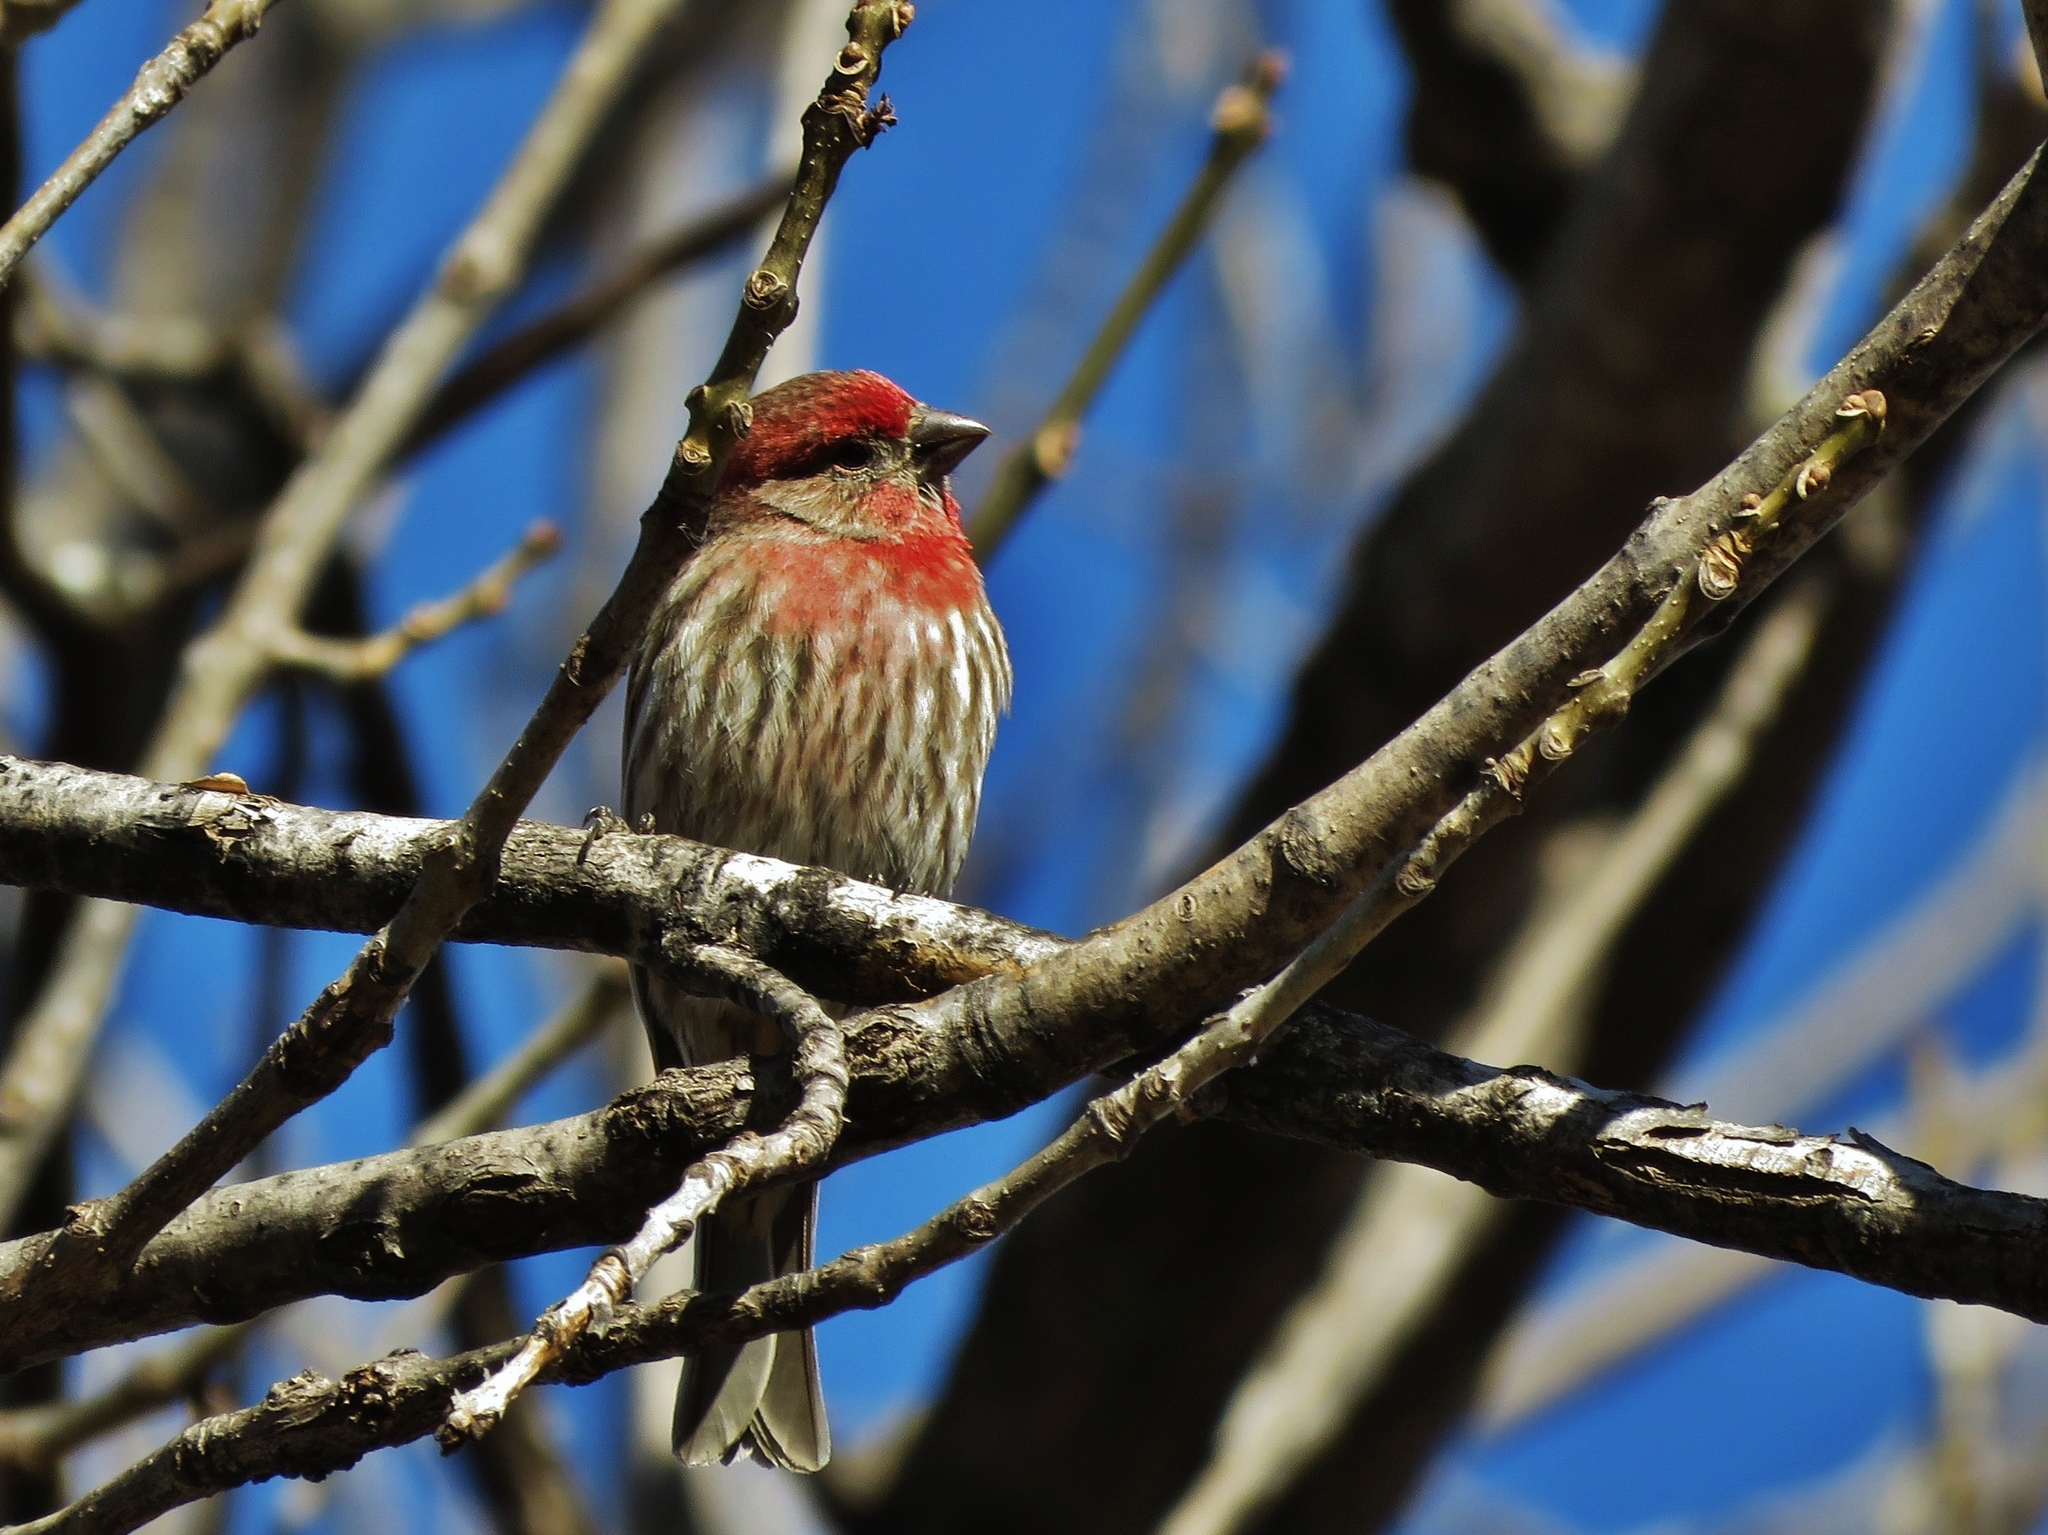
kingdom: Animalia
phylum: Chordata
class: Aves
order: Passeriformes
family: Fringillidae
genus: Haemorhous
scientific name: Haemorhous mexicanus
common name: House finch
